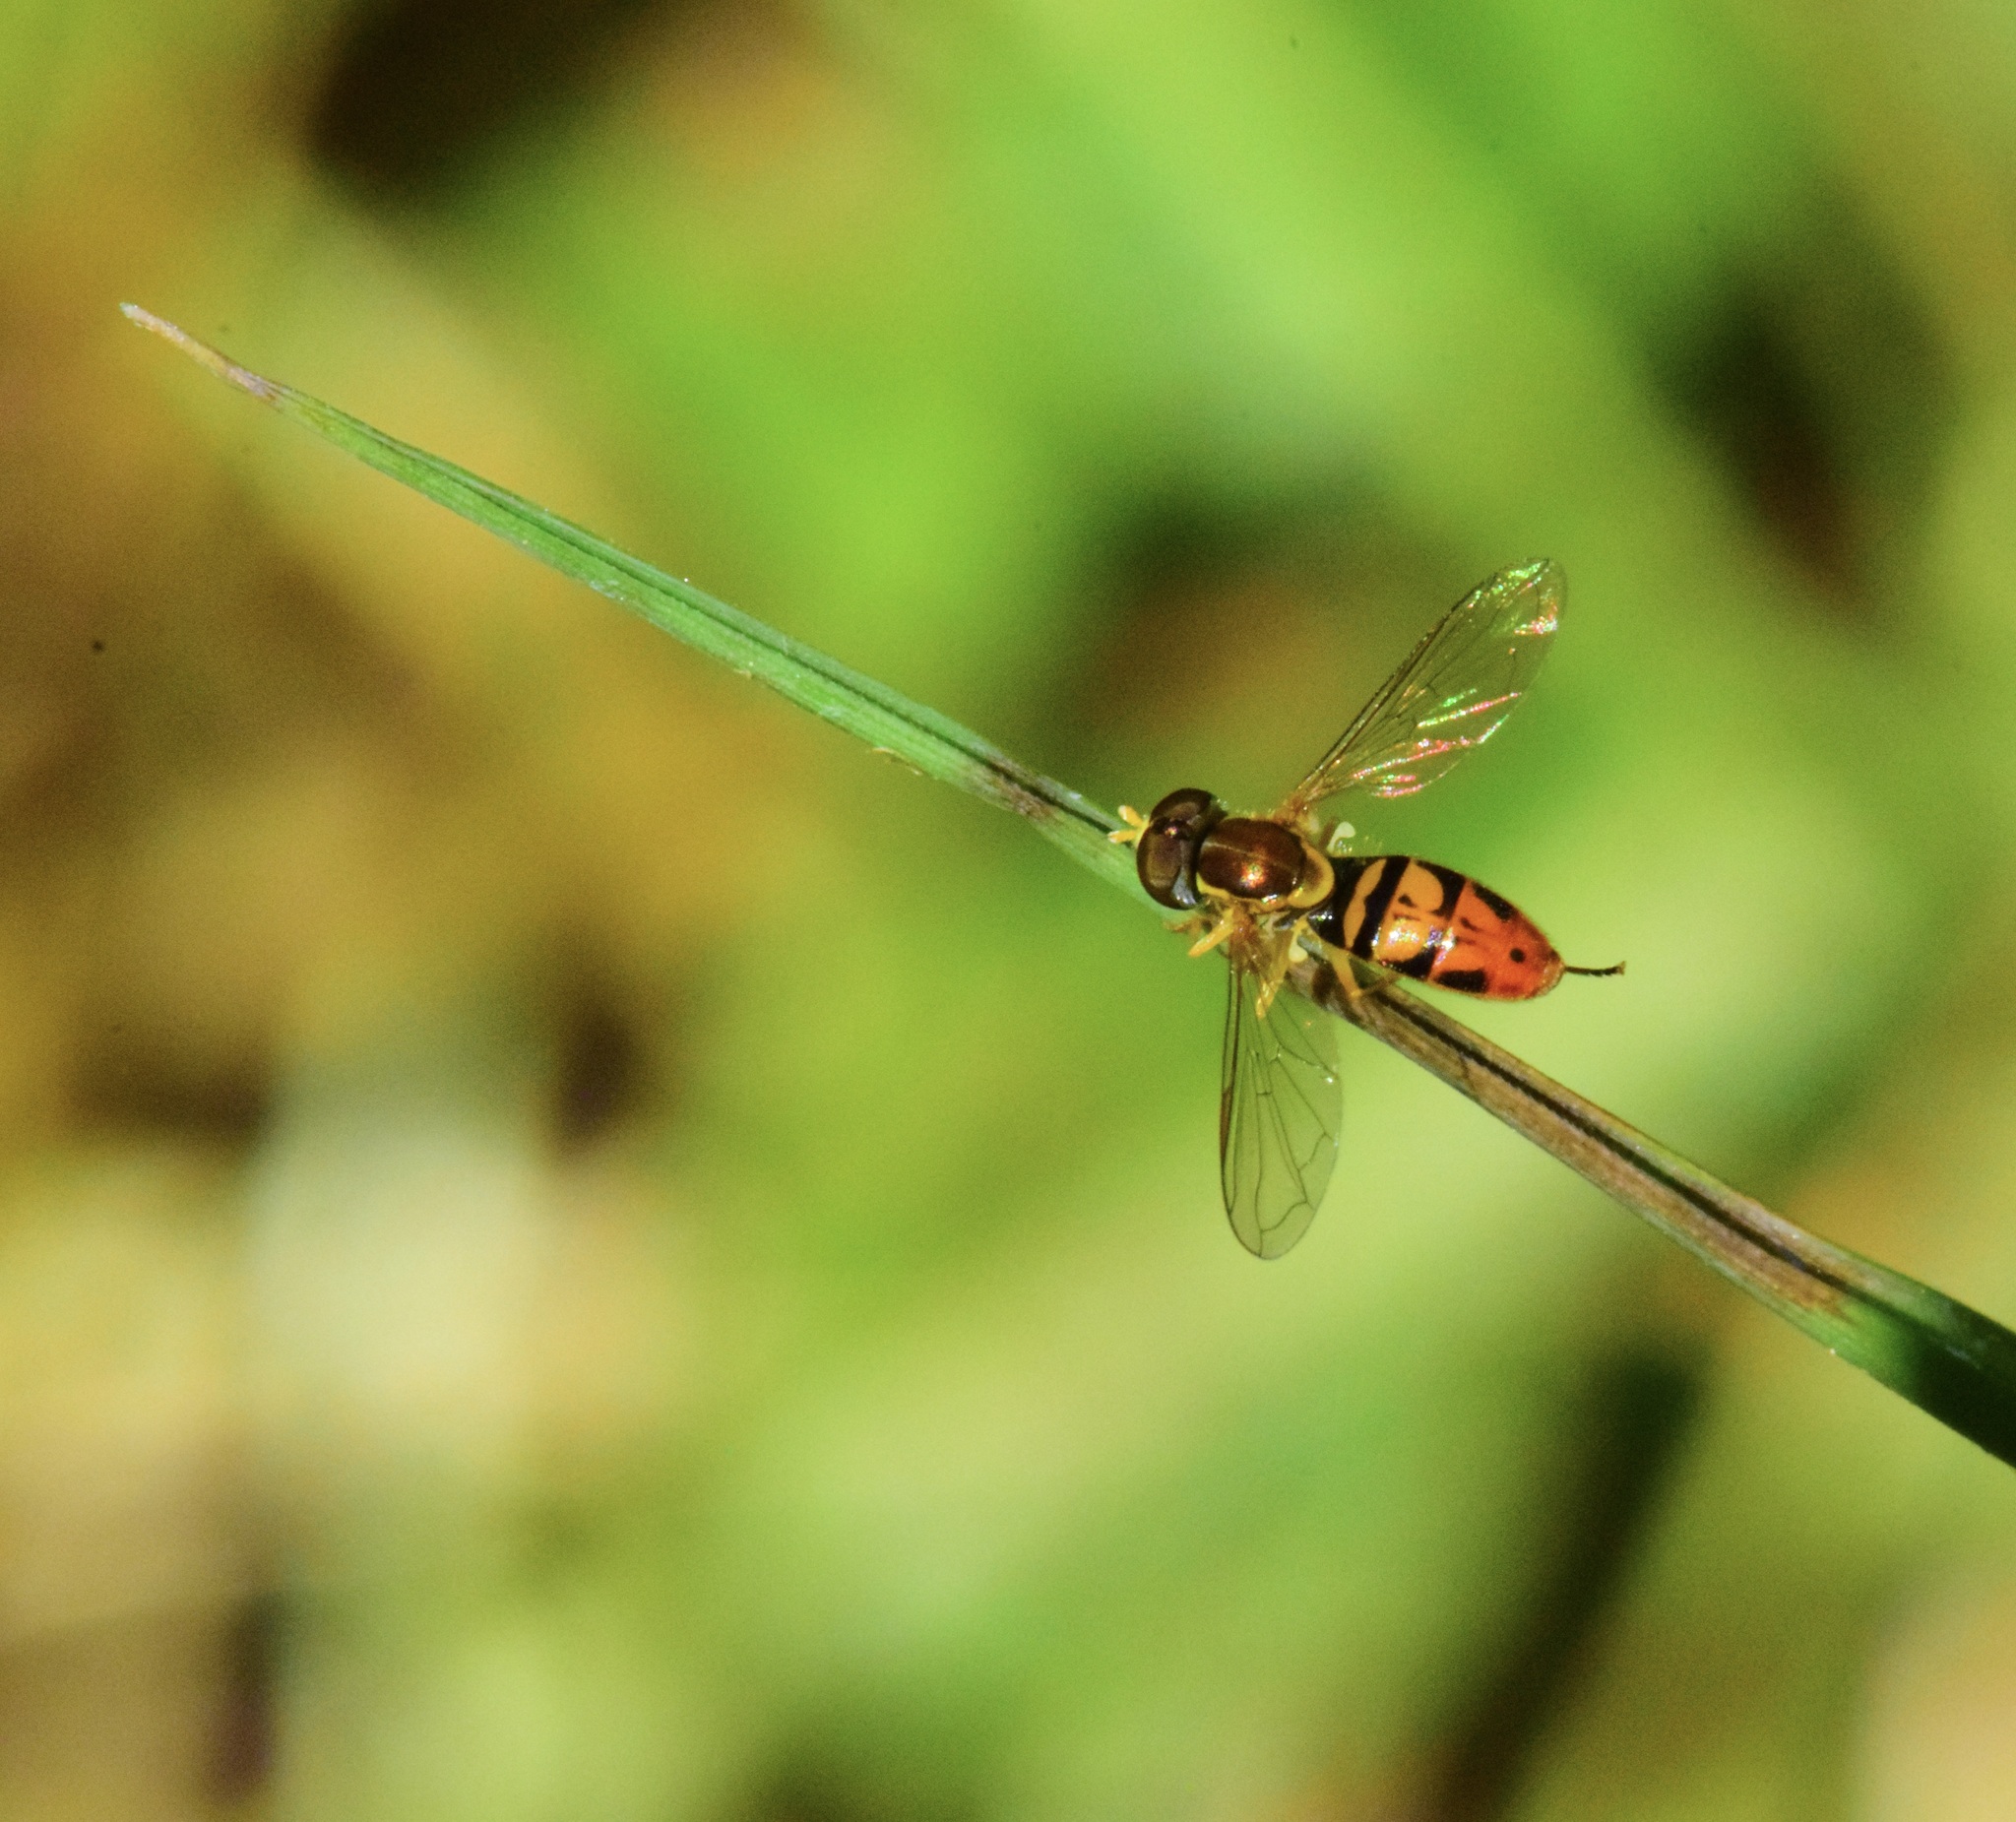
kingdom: Animalia
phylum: Arthropoda
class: Insecta
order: Diptera
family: Syrphidae
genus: Toxomerus
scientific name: Toxomerus marginatus
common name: Syrphid fly
